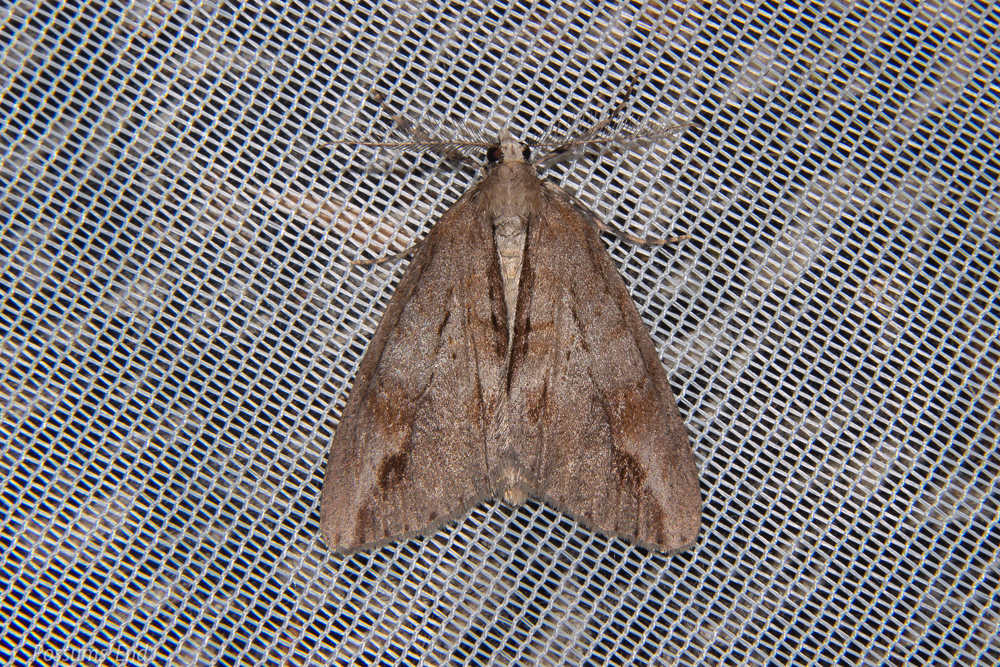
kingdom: Animalia
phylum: Arthropoda
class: Insecta
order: Lepidoptera
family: Geometridae
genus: Pseudocoremia
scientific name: Pseudocoremia lupinata
